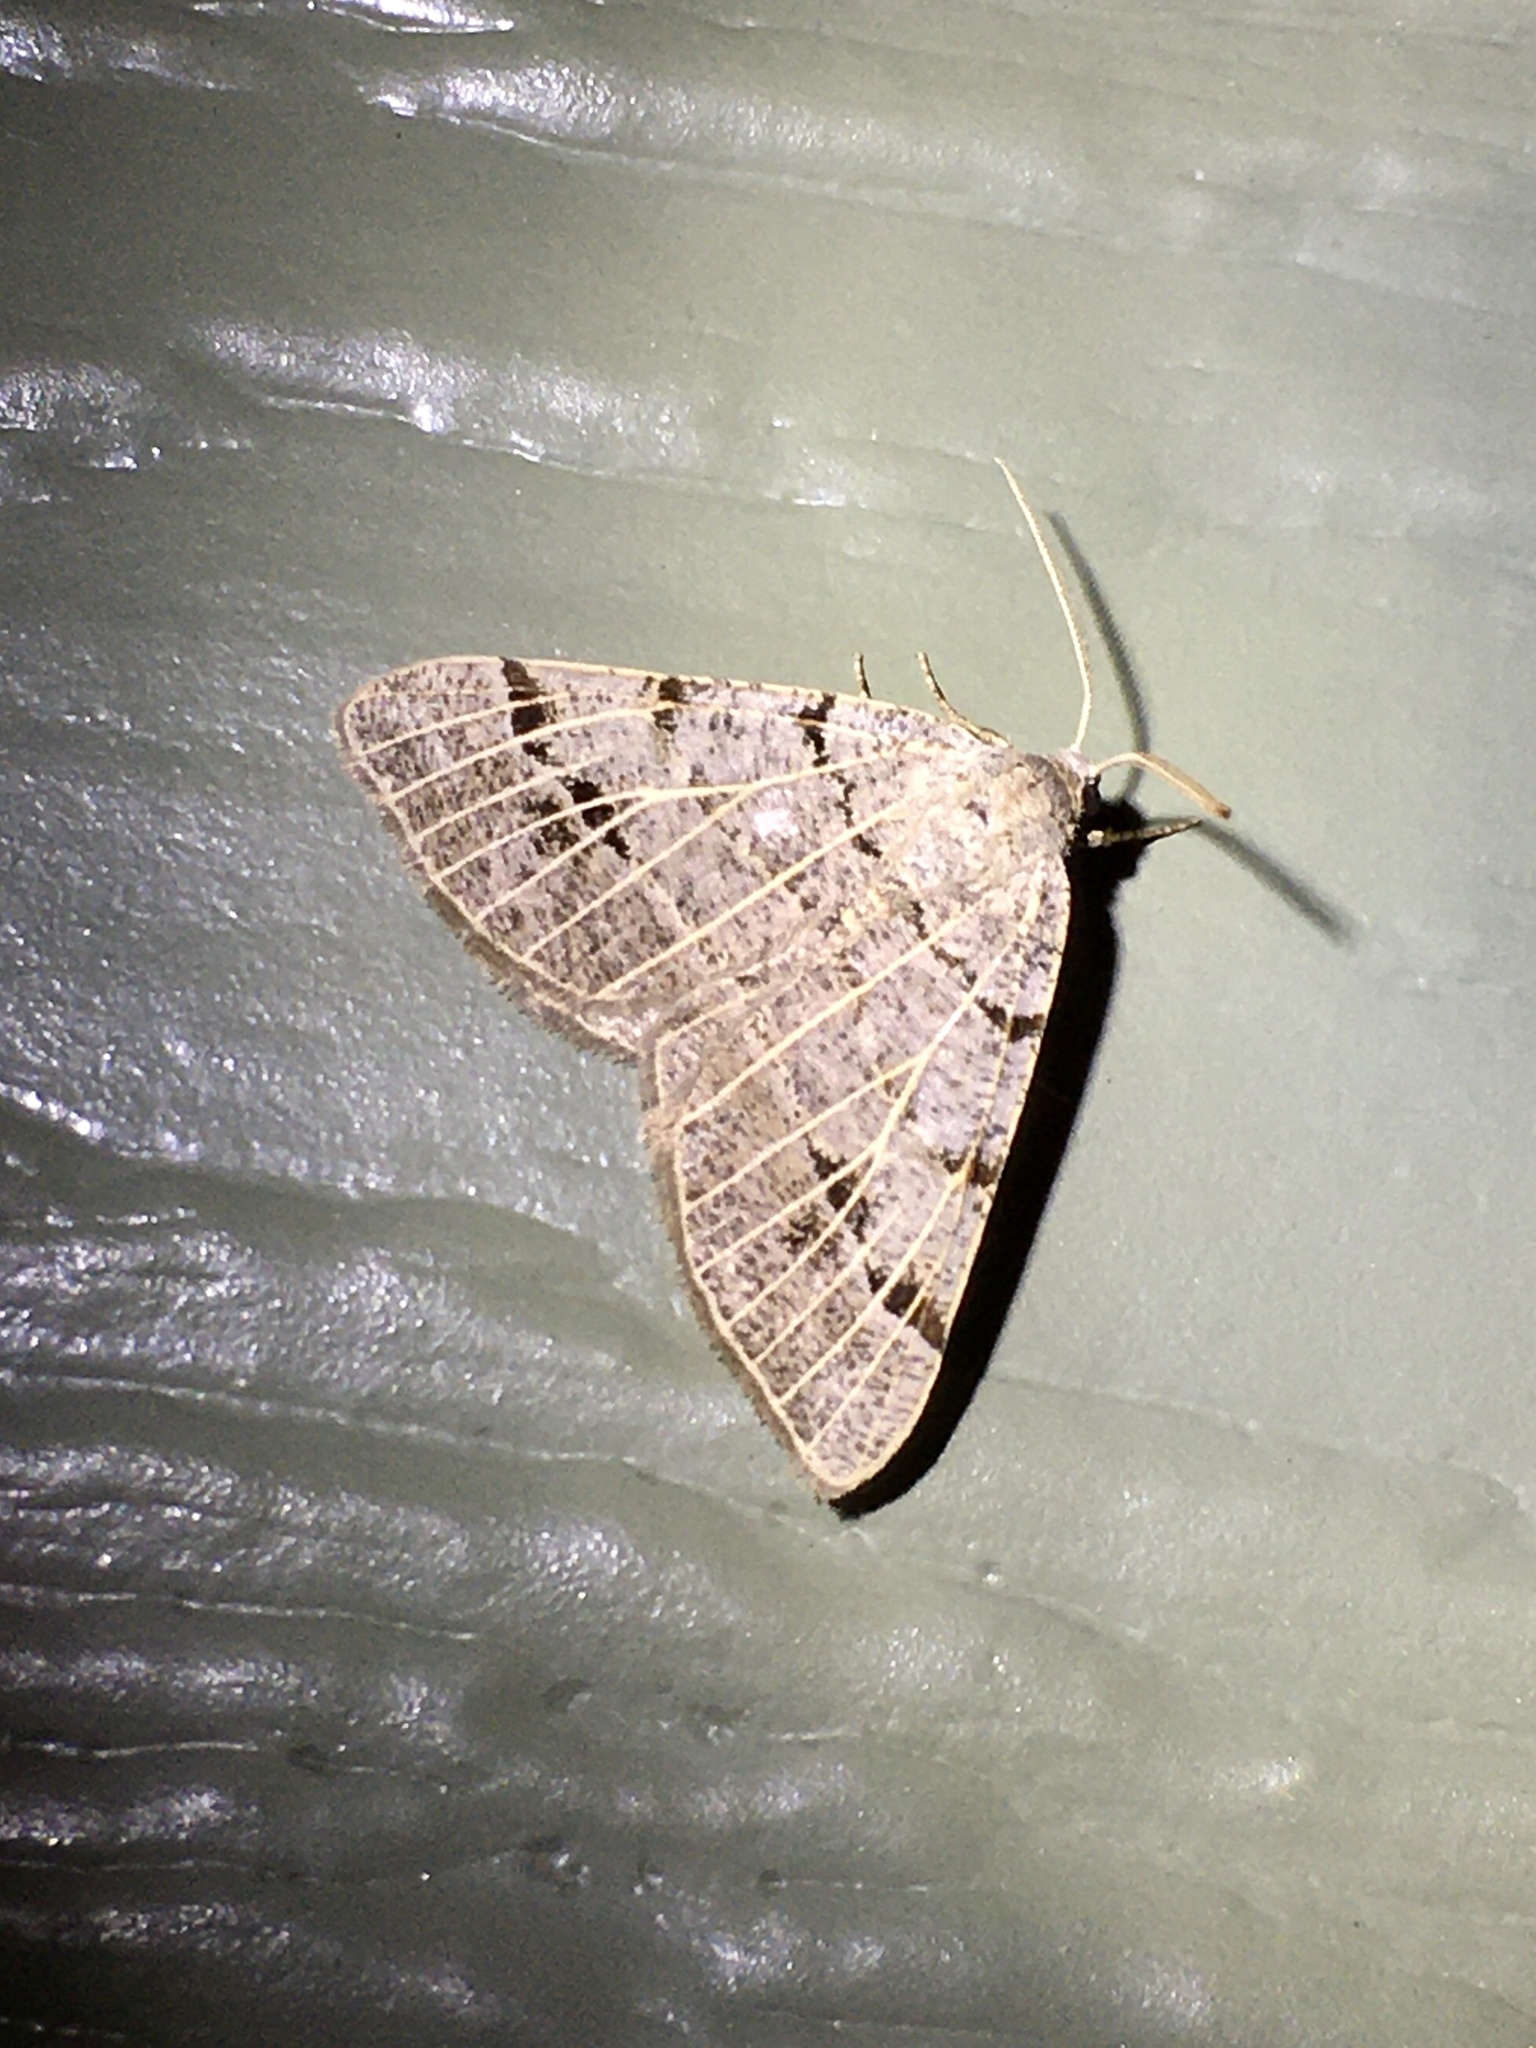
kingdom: Animalia
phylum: Arthropoda
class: Insecta
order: Lepidoptera
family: Geometridae
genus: Isturgia
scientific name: Isturgia dislocaria
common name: Pale-viened enconista
